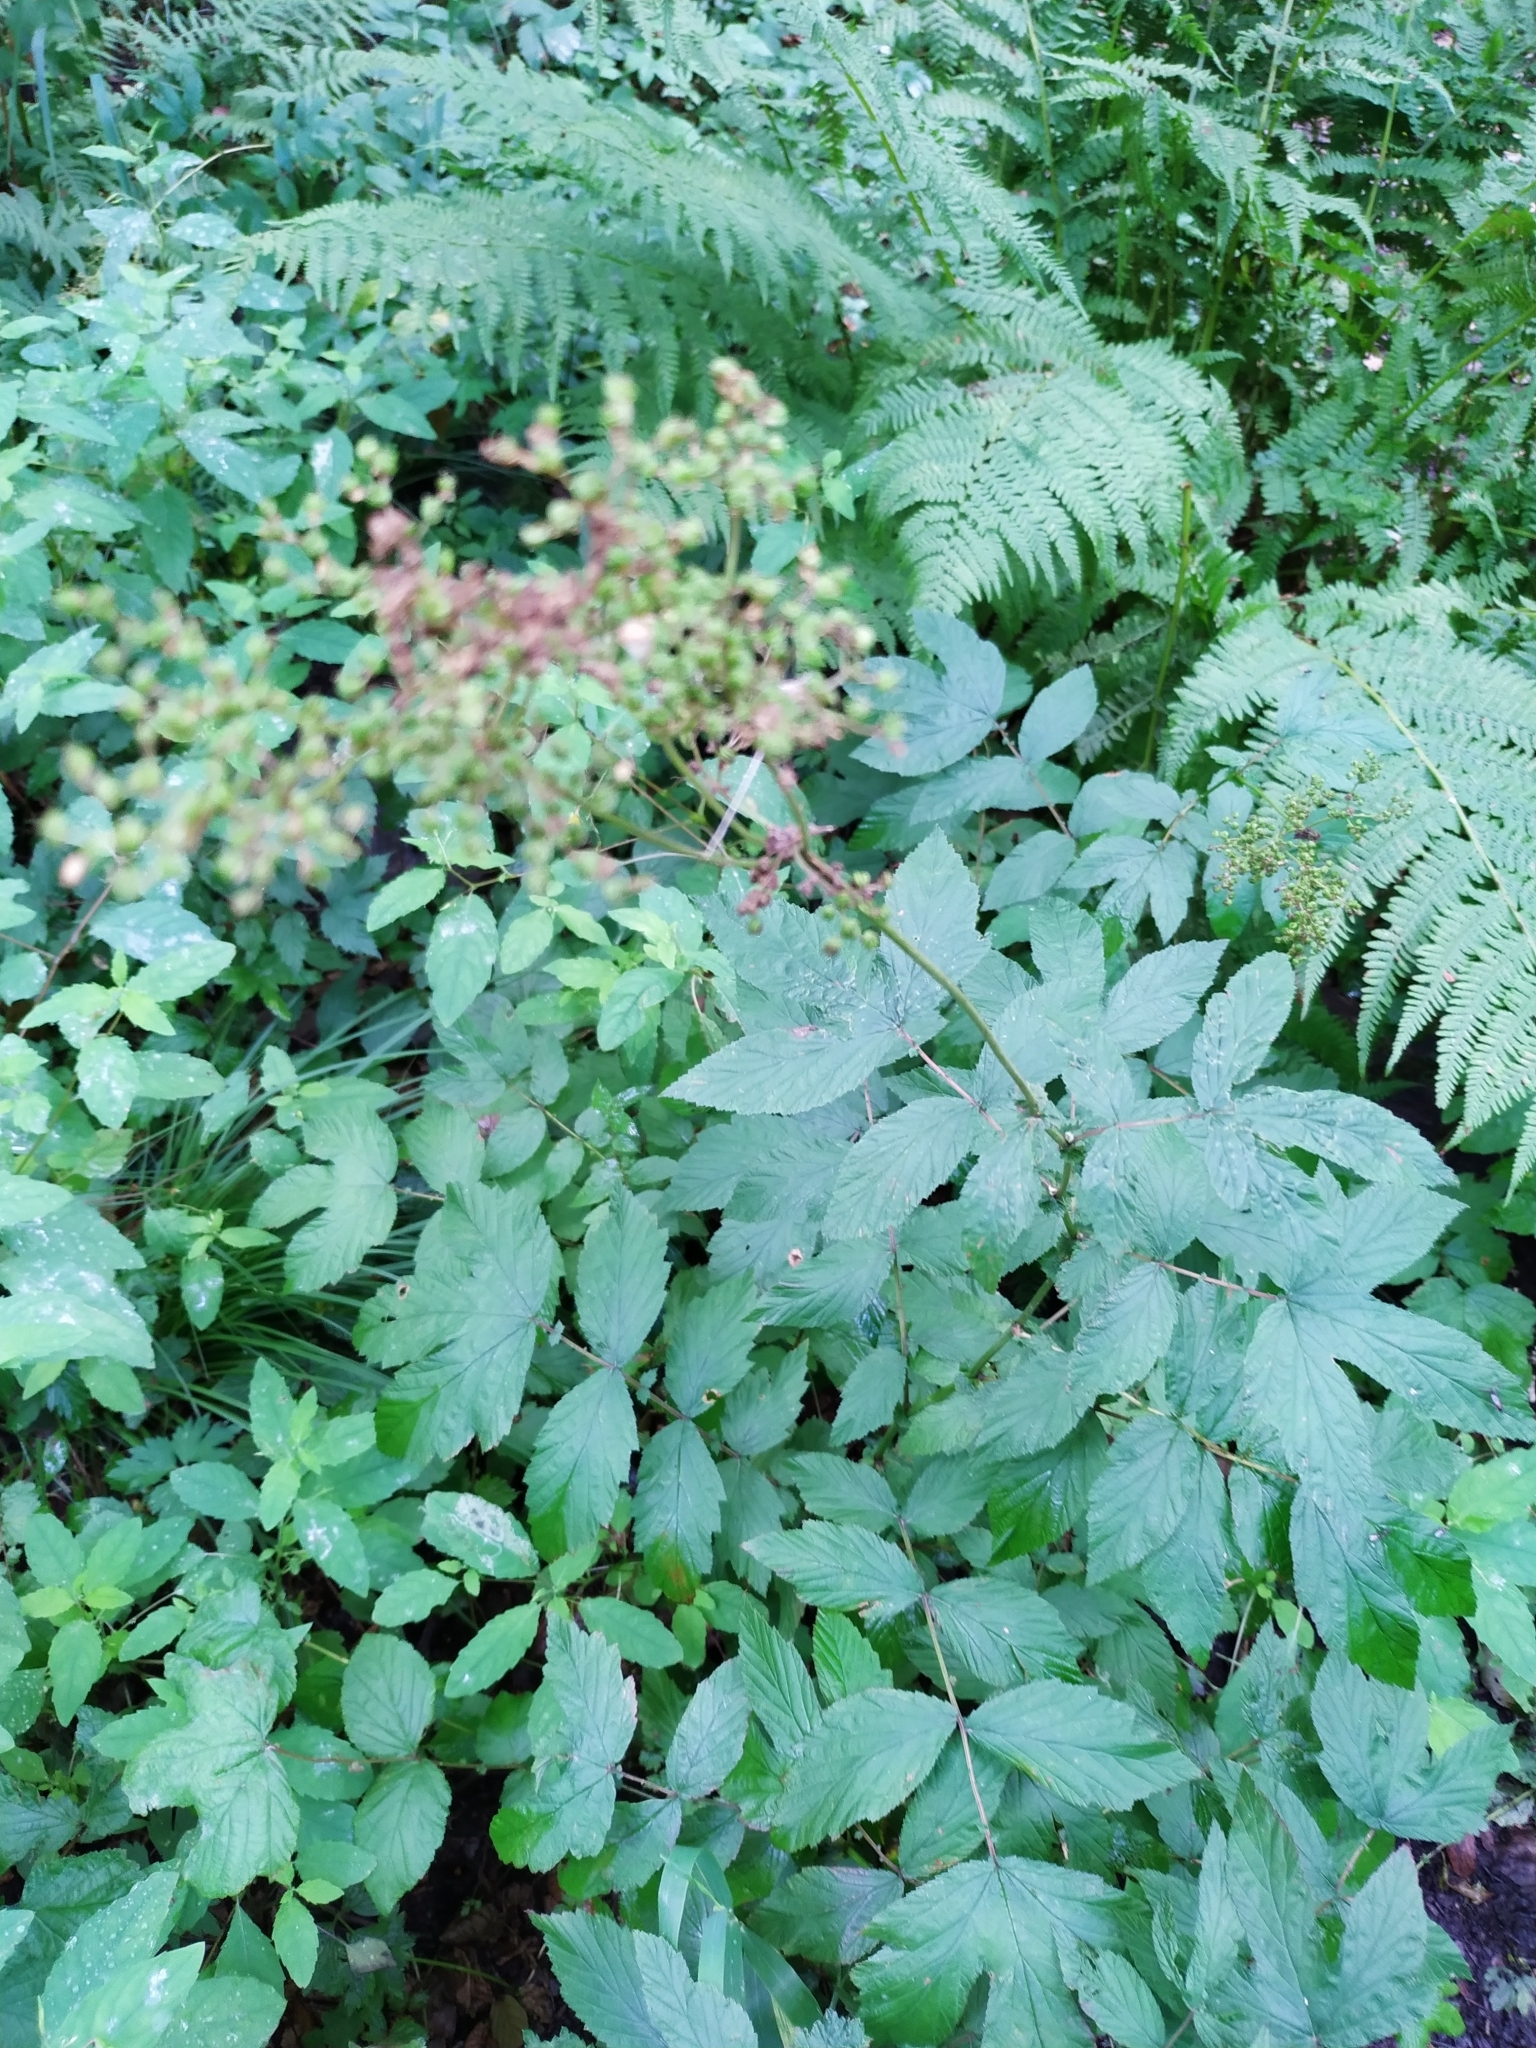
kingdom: Plantae
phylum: Tracheophyta
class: Magnoliopsida
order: Rosales
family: Rosaceae
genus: Filipendula
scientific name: Filipendula ulmaria
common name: Meadowsweet
